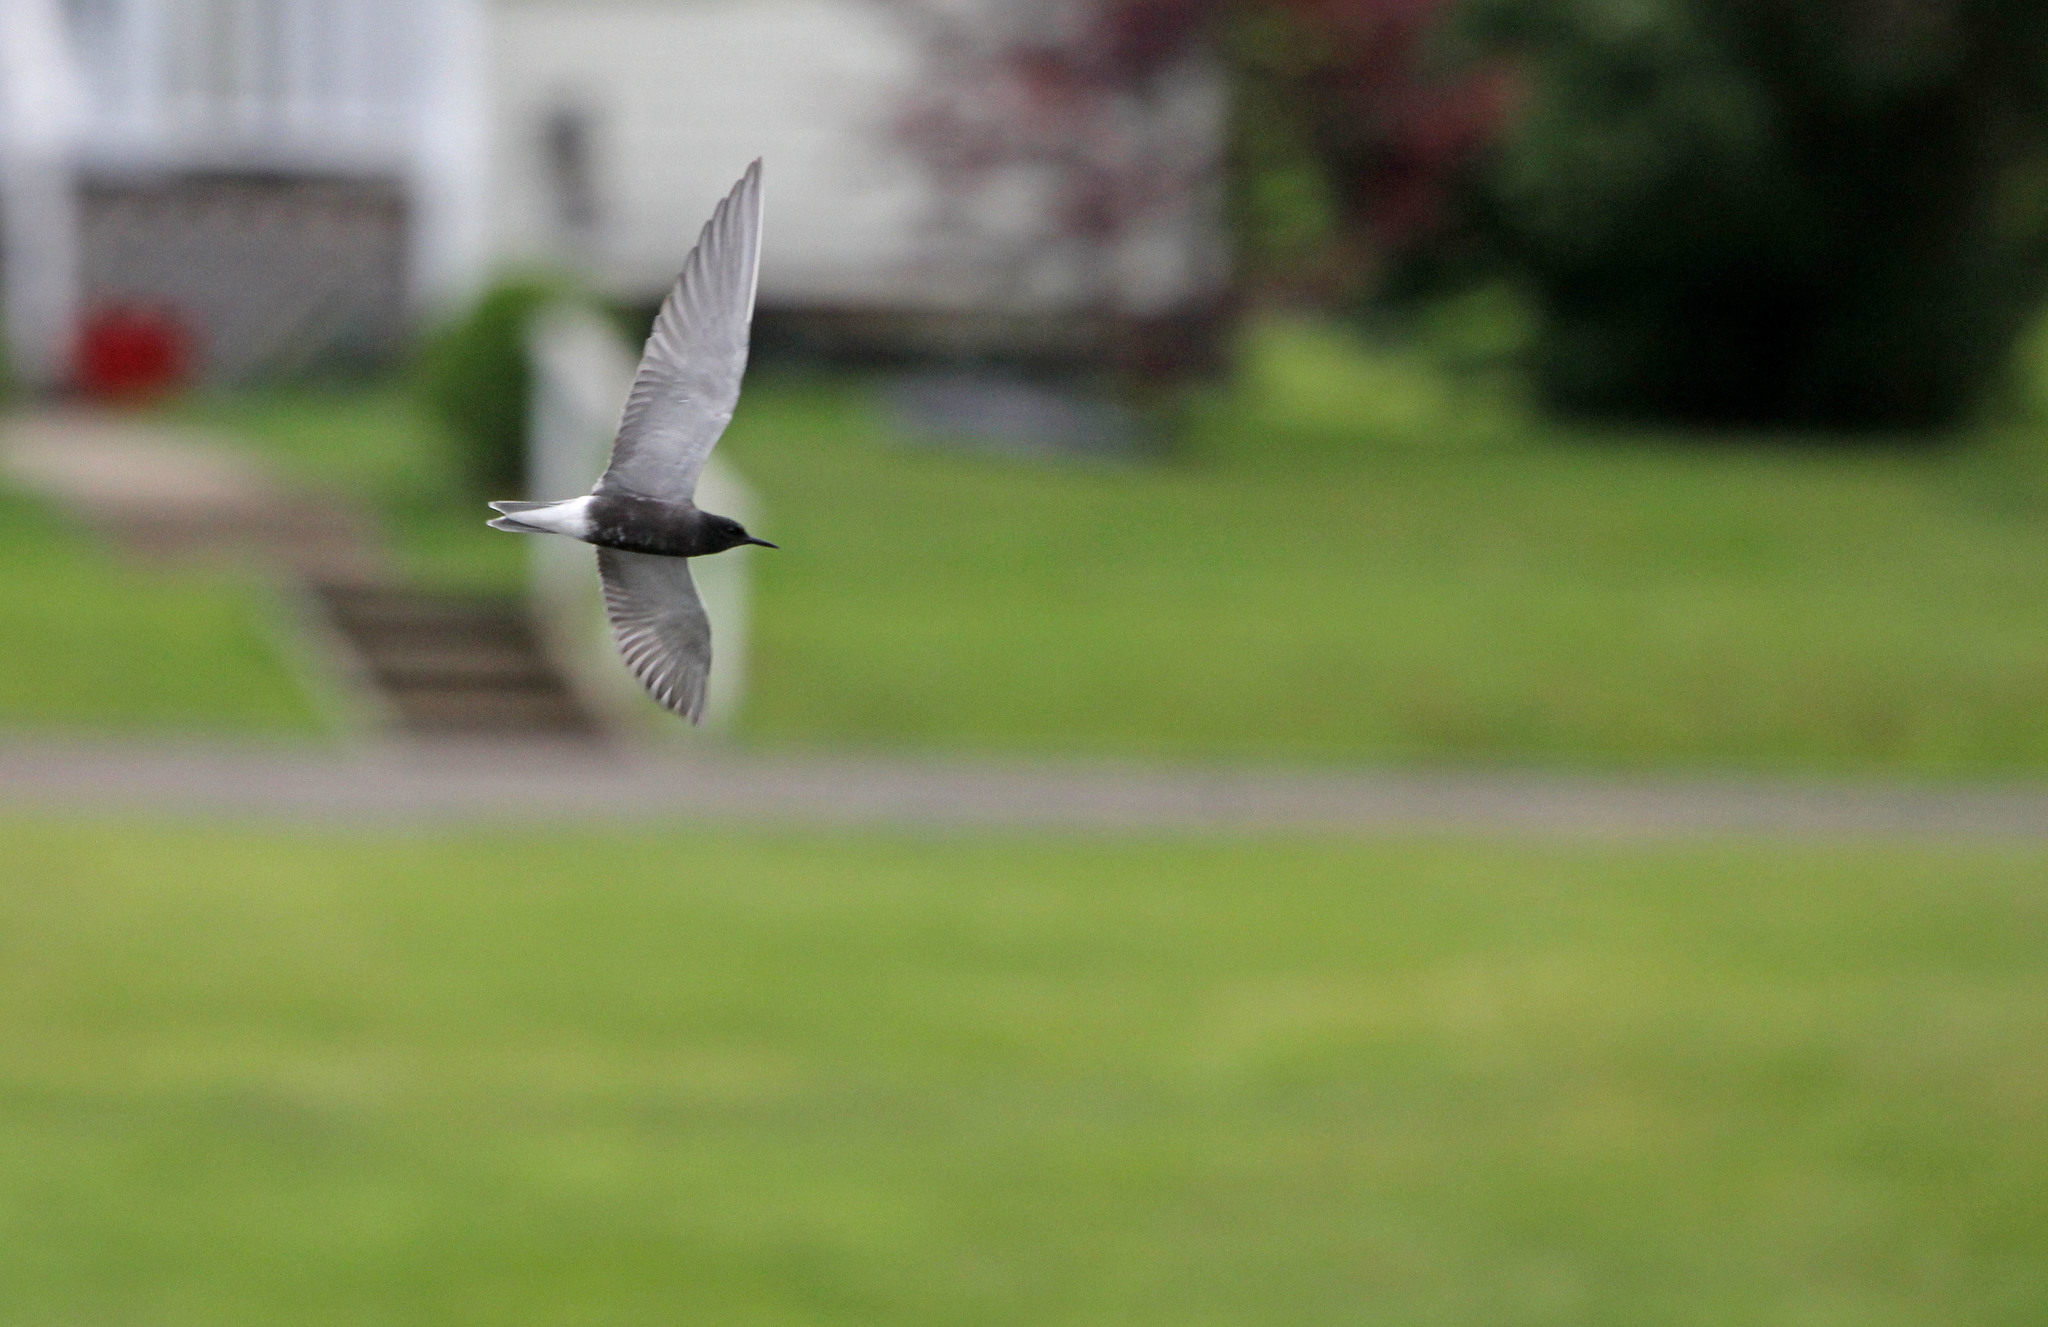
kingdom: Animalia
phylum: Chordata
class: Aves
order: Charadriiformes
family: Laridae
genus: Chlidonias
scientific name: Chlidonias niger
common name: Black tern
